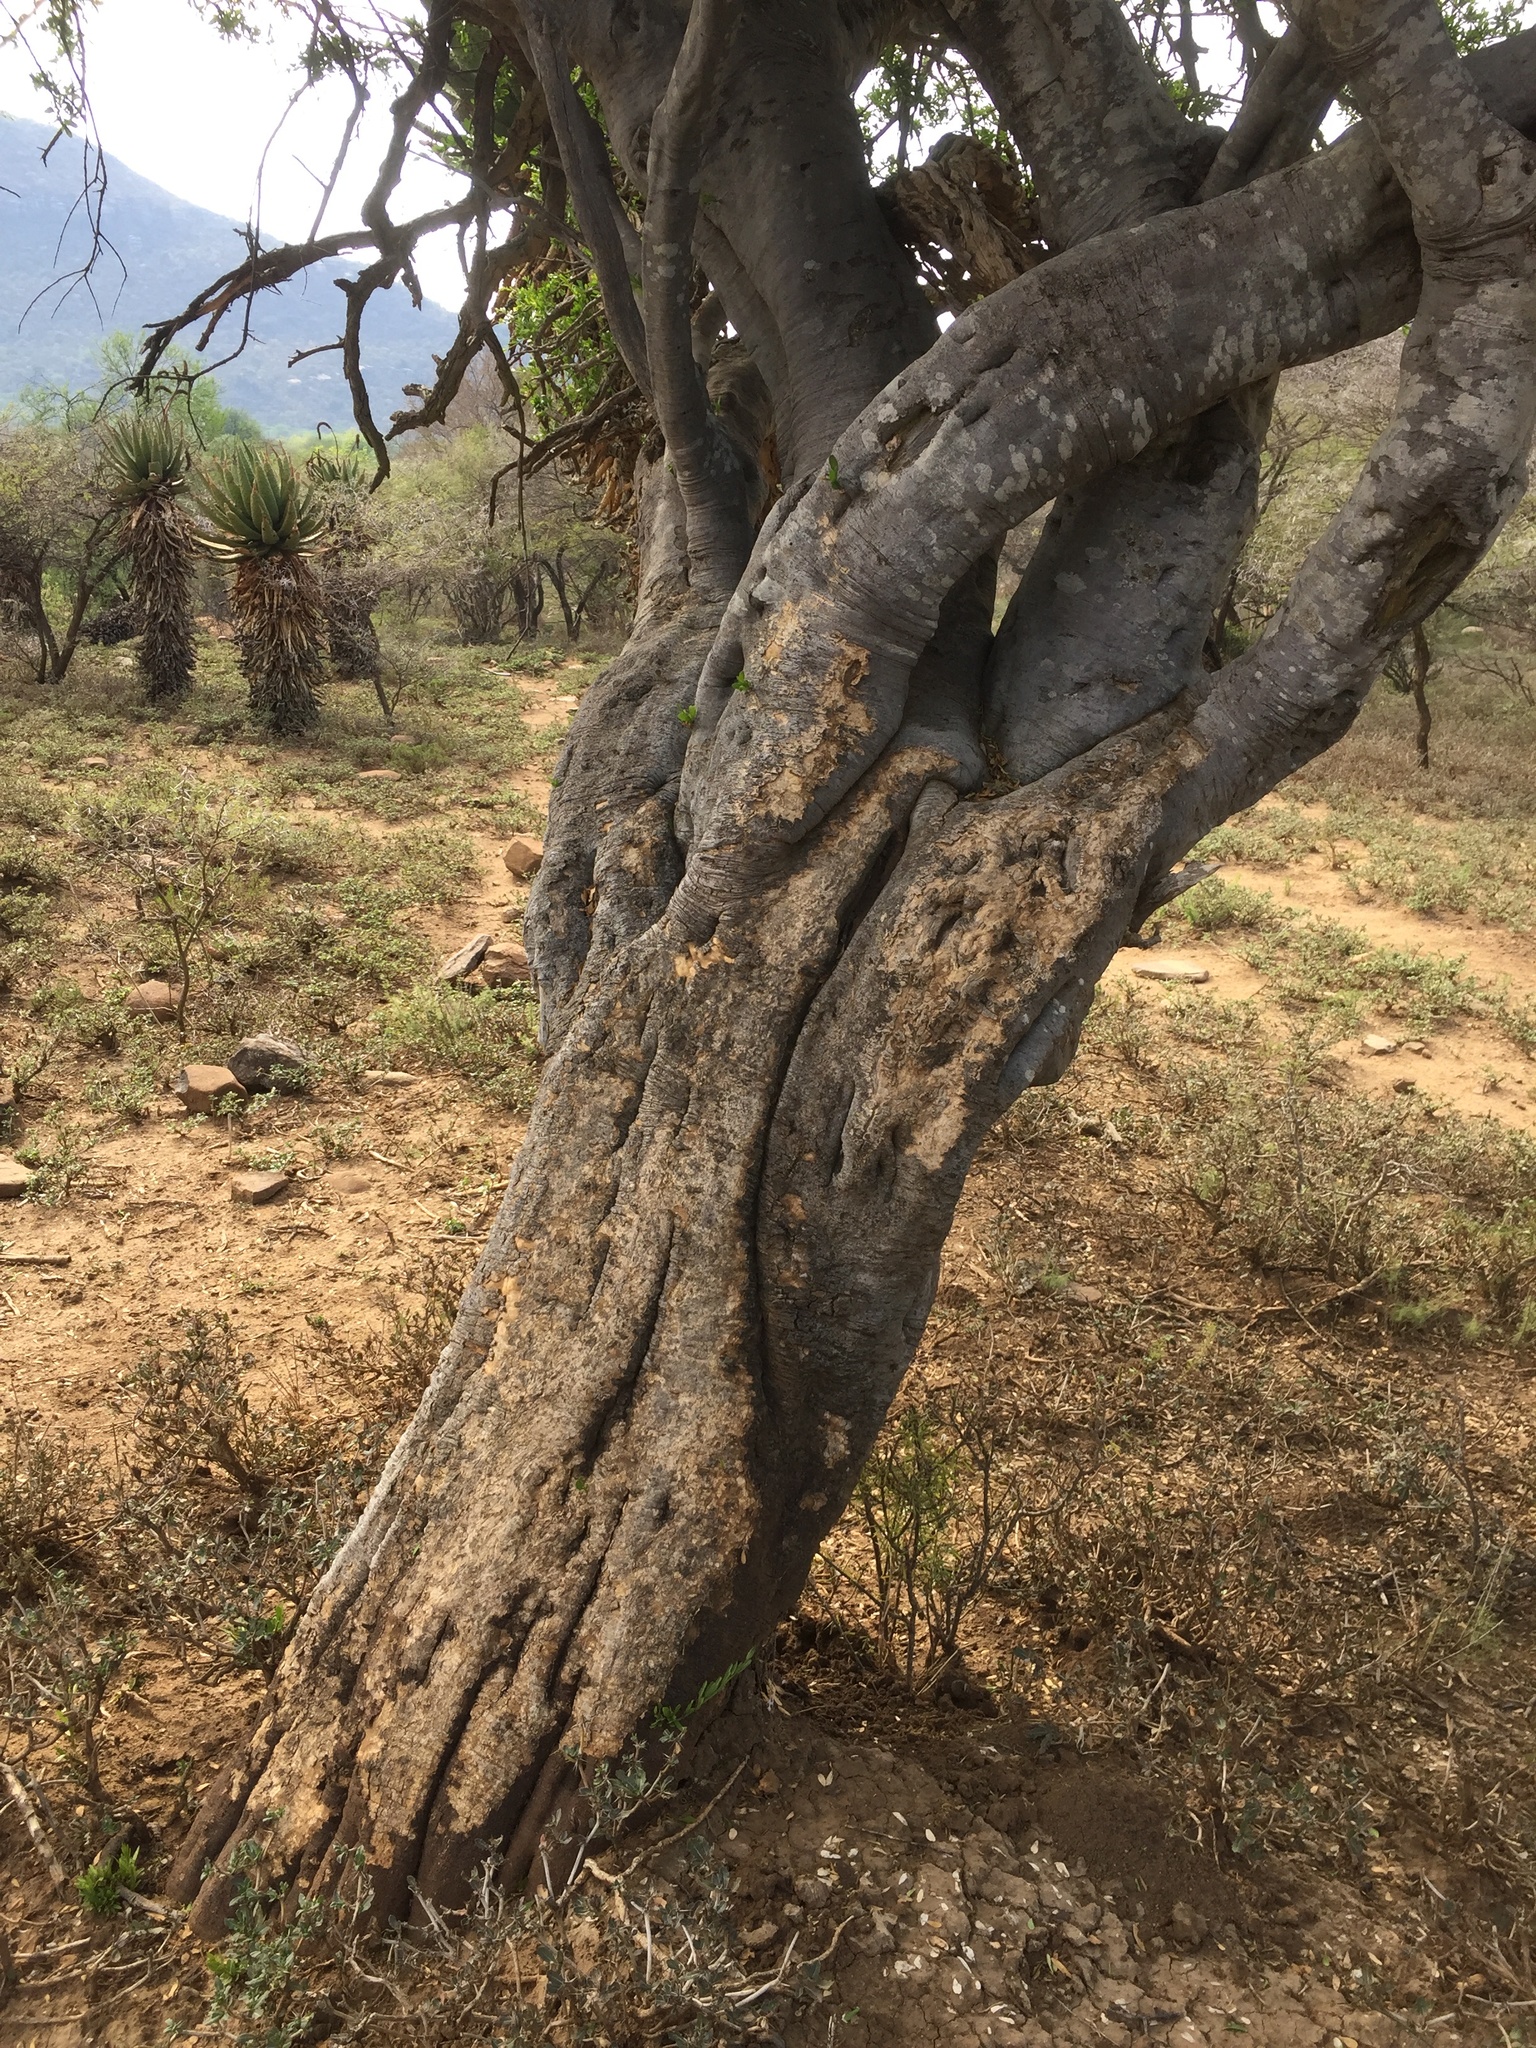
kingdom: Plantae
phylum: Tracheophyta
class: Magnoliopsida
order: Brassicales
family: Capparaceae
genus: Boscia
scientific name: Boscia foetida
